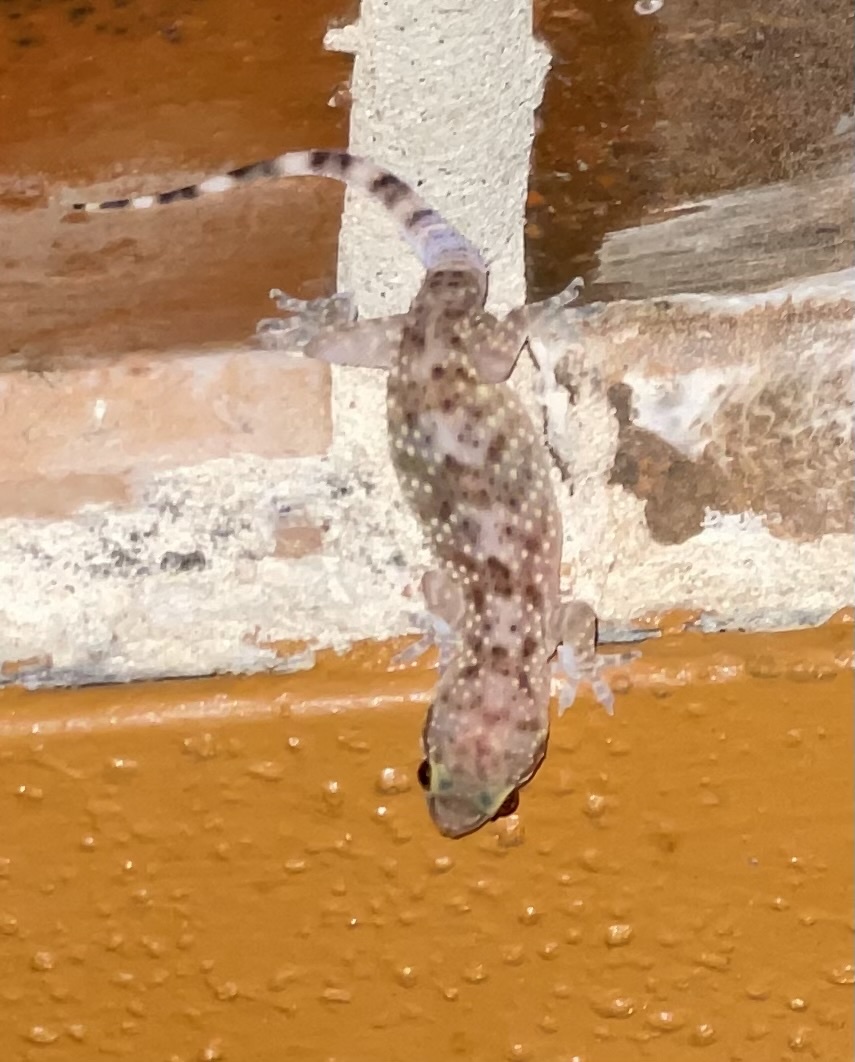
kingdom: Animalia
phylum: Chordata
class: Squamata
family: Gekkonidae
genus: Hemidactylus
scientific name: Hemidactylus turcicus
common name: Turkish gecko
